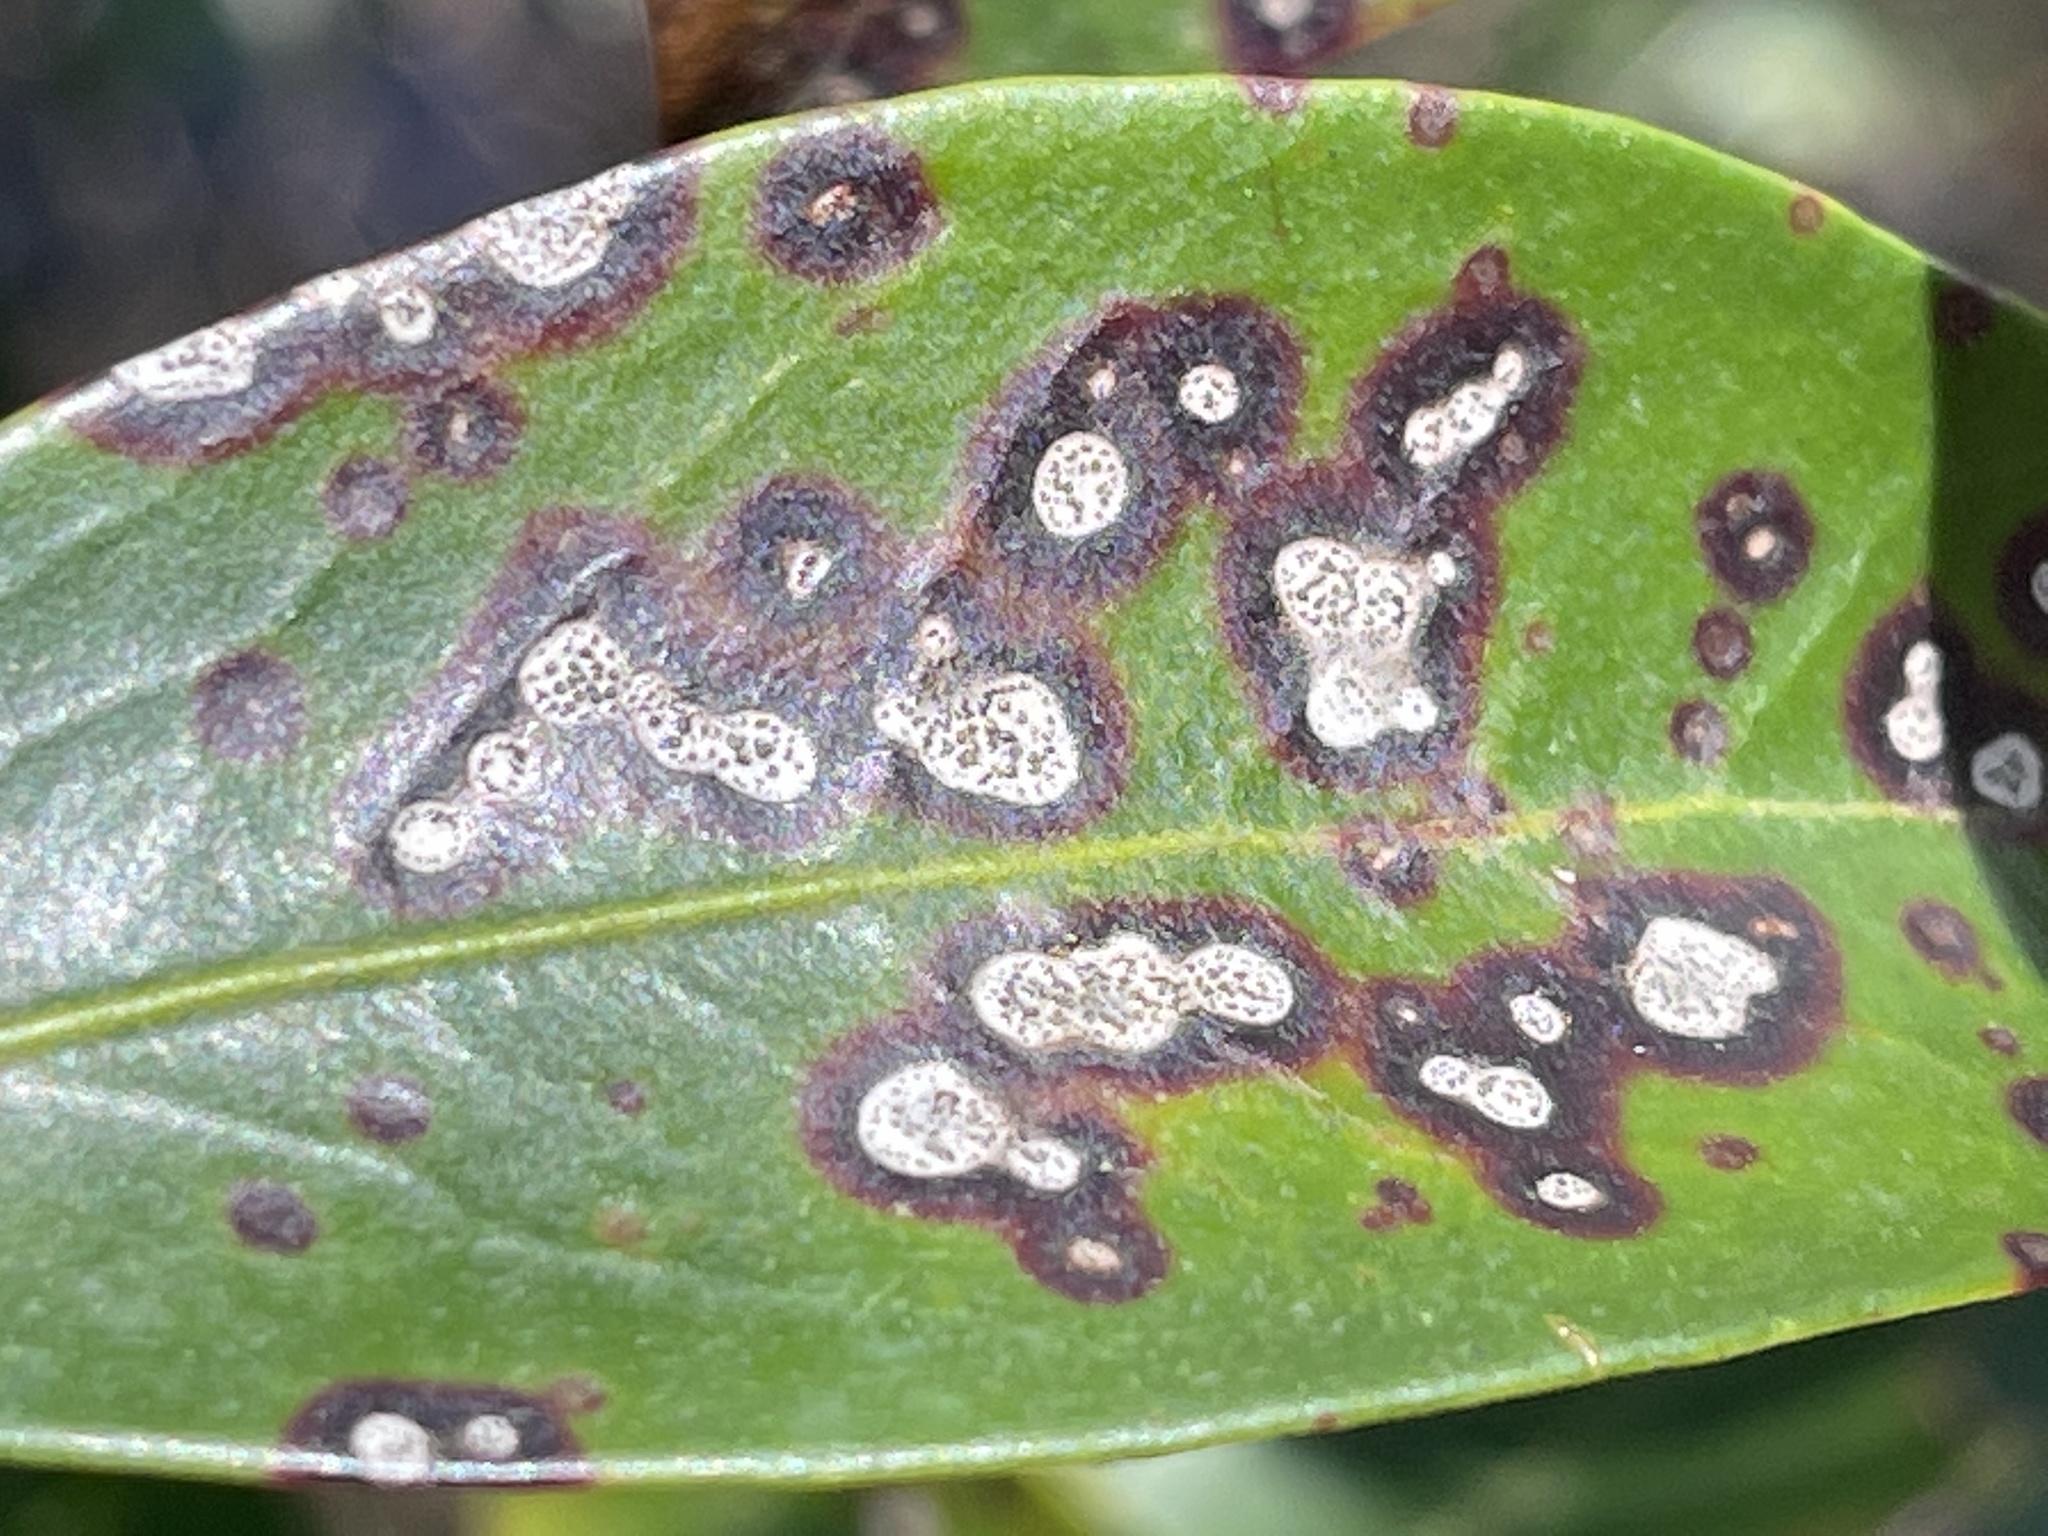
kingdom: Plantae
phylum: Tracheophyta
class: Magnoliopsida
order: Ericales
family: Ericaceae
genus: Kalmia
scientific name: Kalmia latifolia
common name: Mountain-laurel
